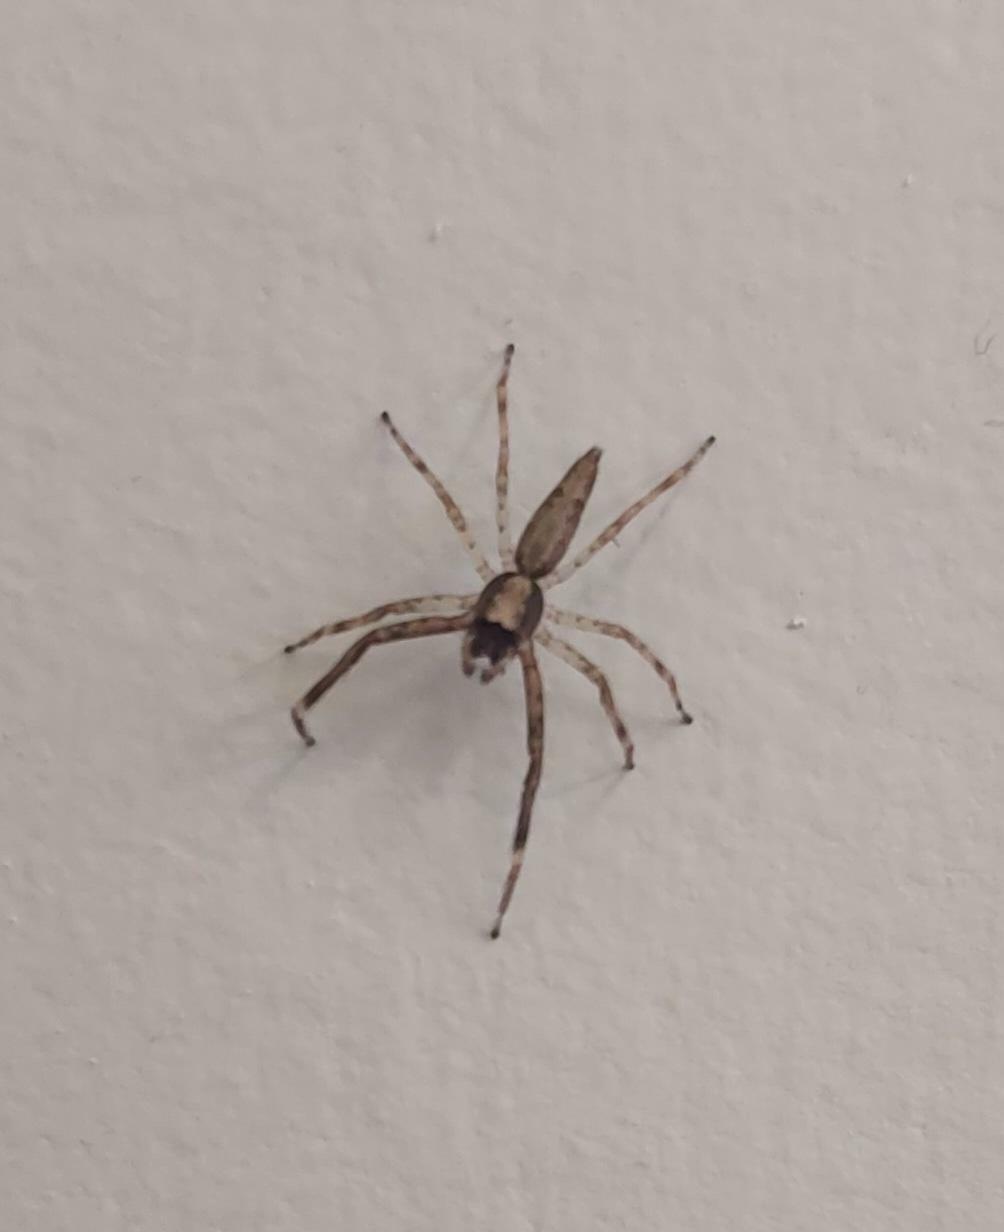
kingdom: Animalia
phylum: Arthropoda
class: Arachnida
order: Araneae
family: Salticidae
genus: Helpis
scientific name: Helpis minitabunda
